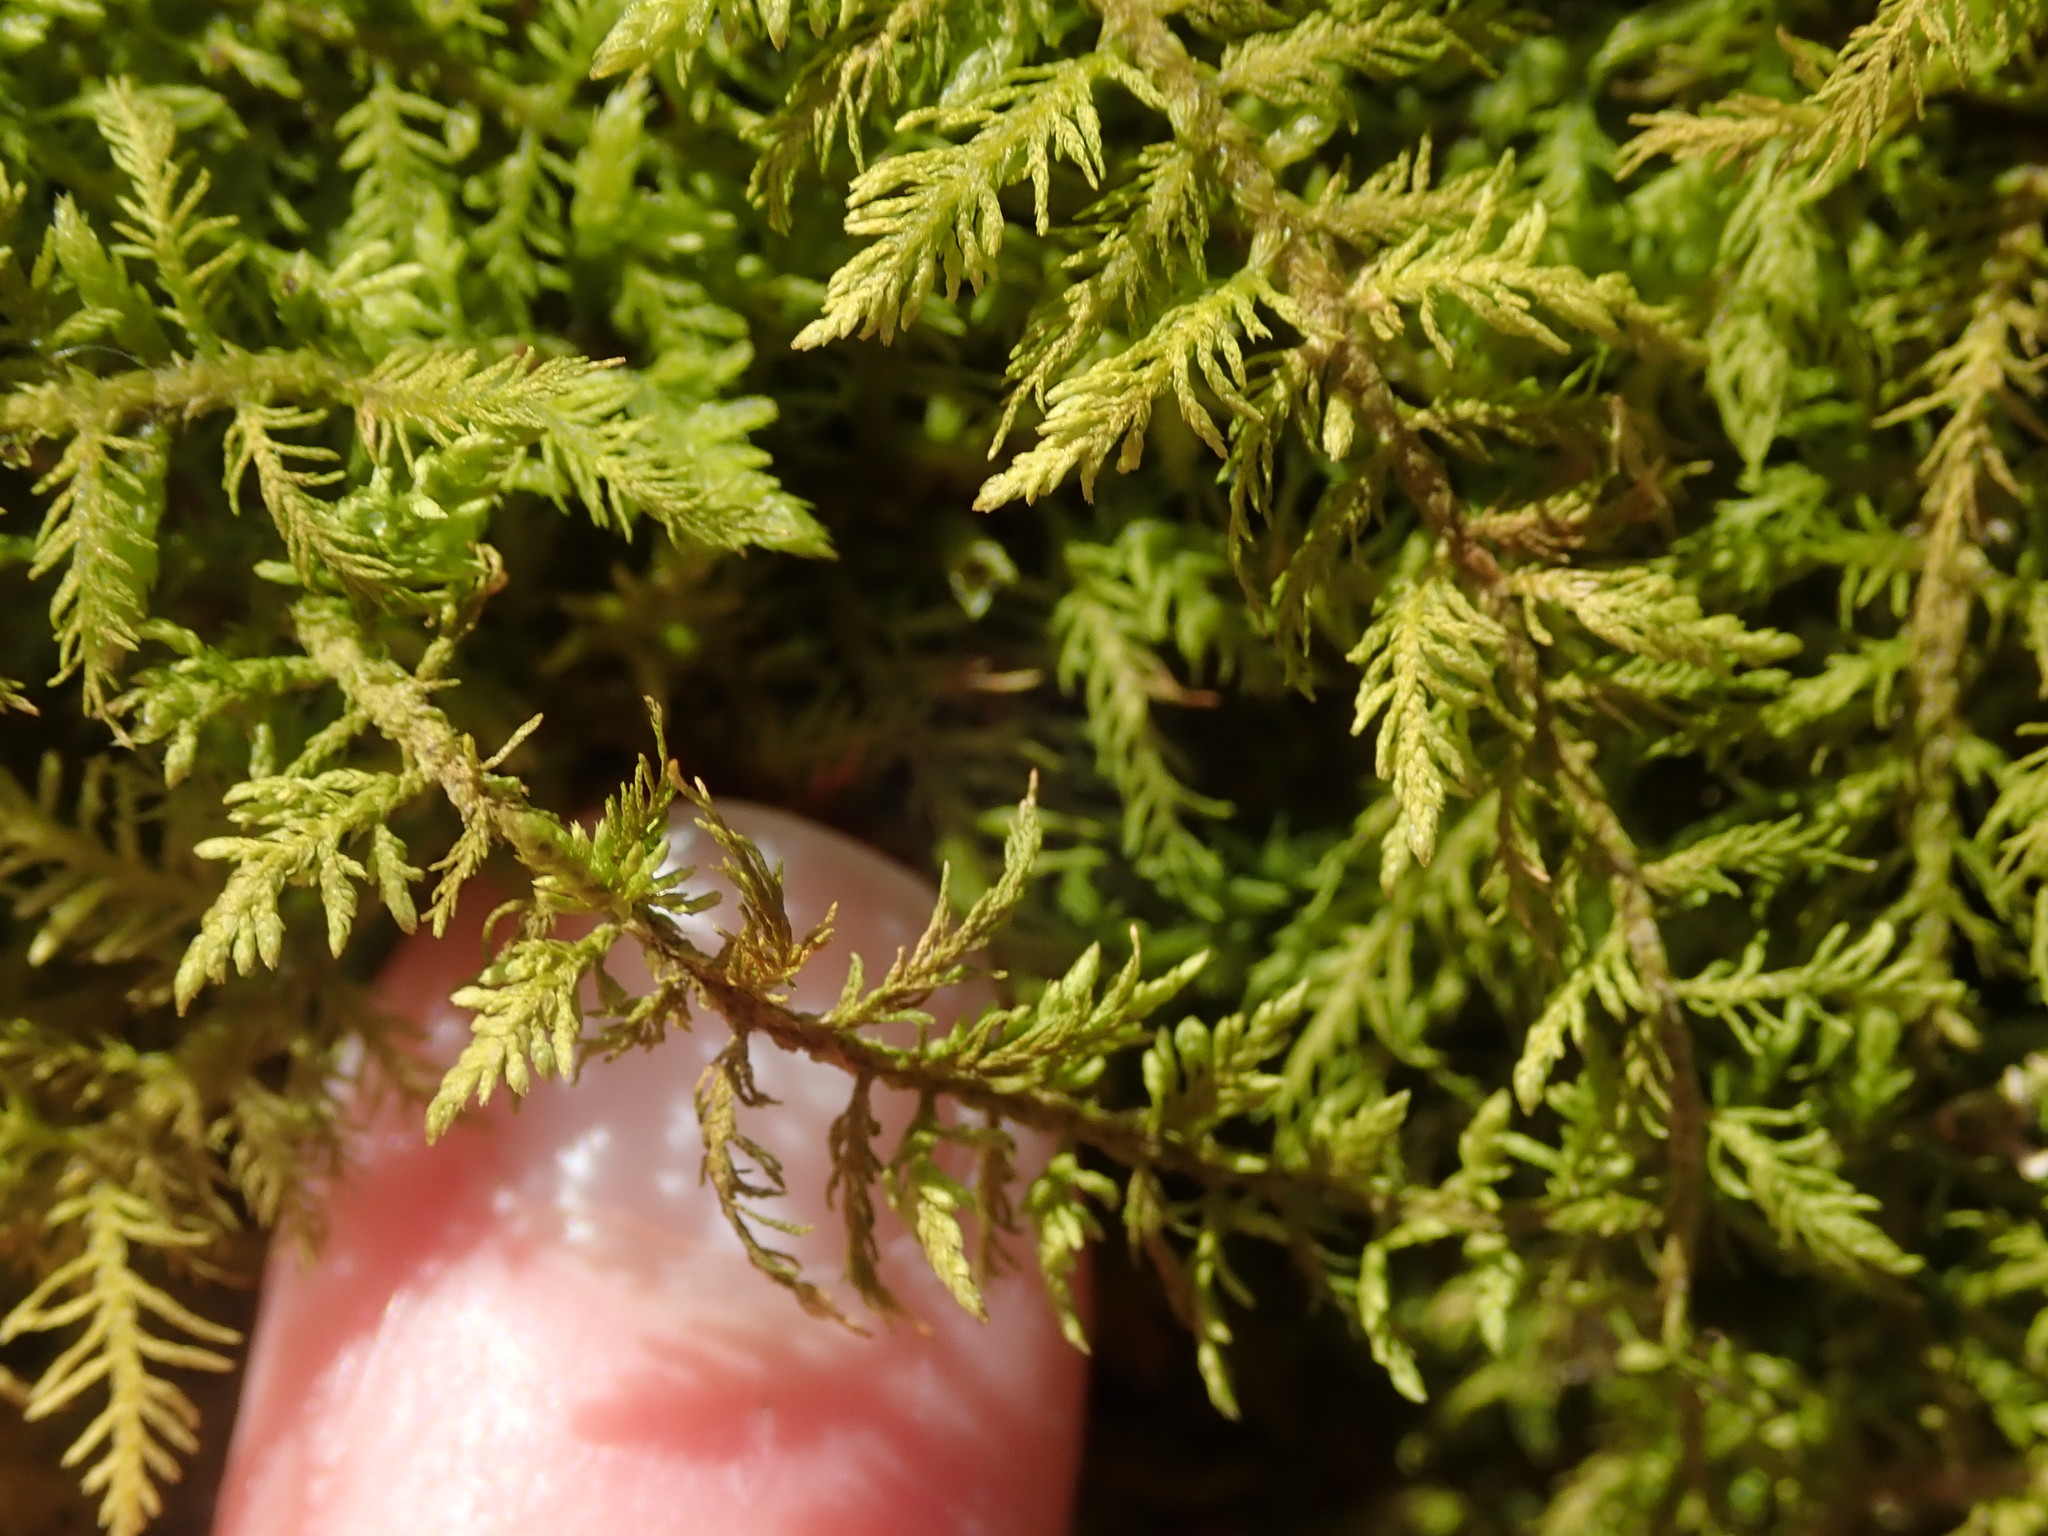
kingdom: Plantae
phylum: Bryophyta
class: Bryopsida
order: Hypnales
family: Thuidiaceae
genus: Thuidium
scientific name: Thuidium delicatulum
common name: Delicate fern moss
